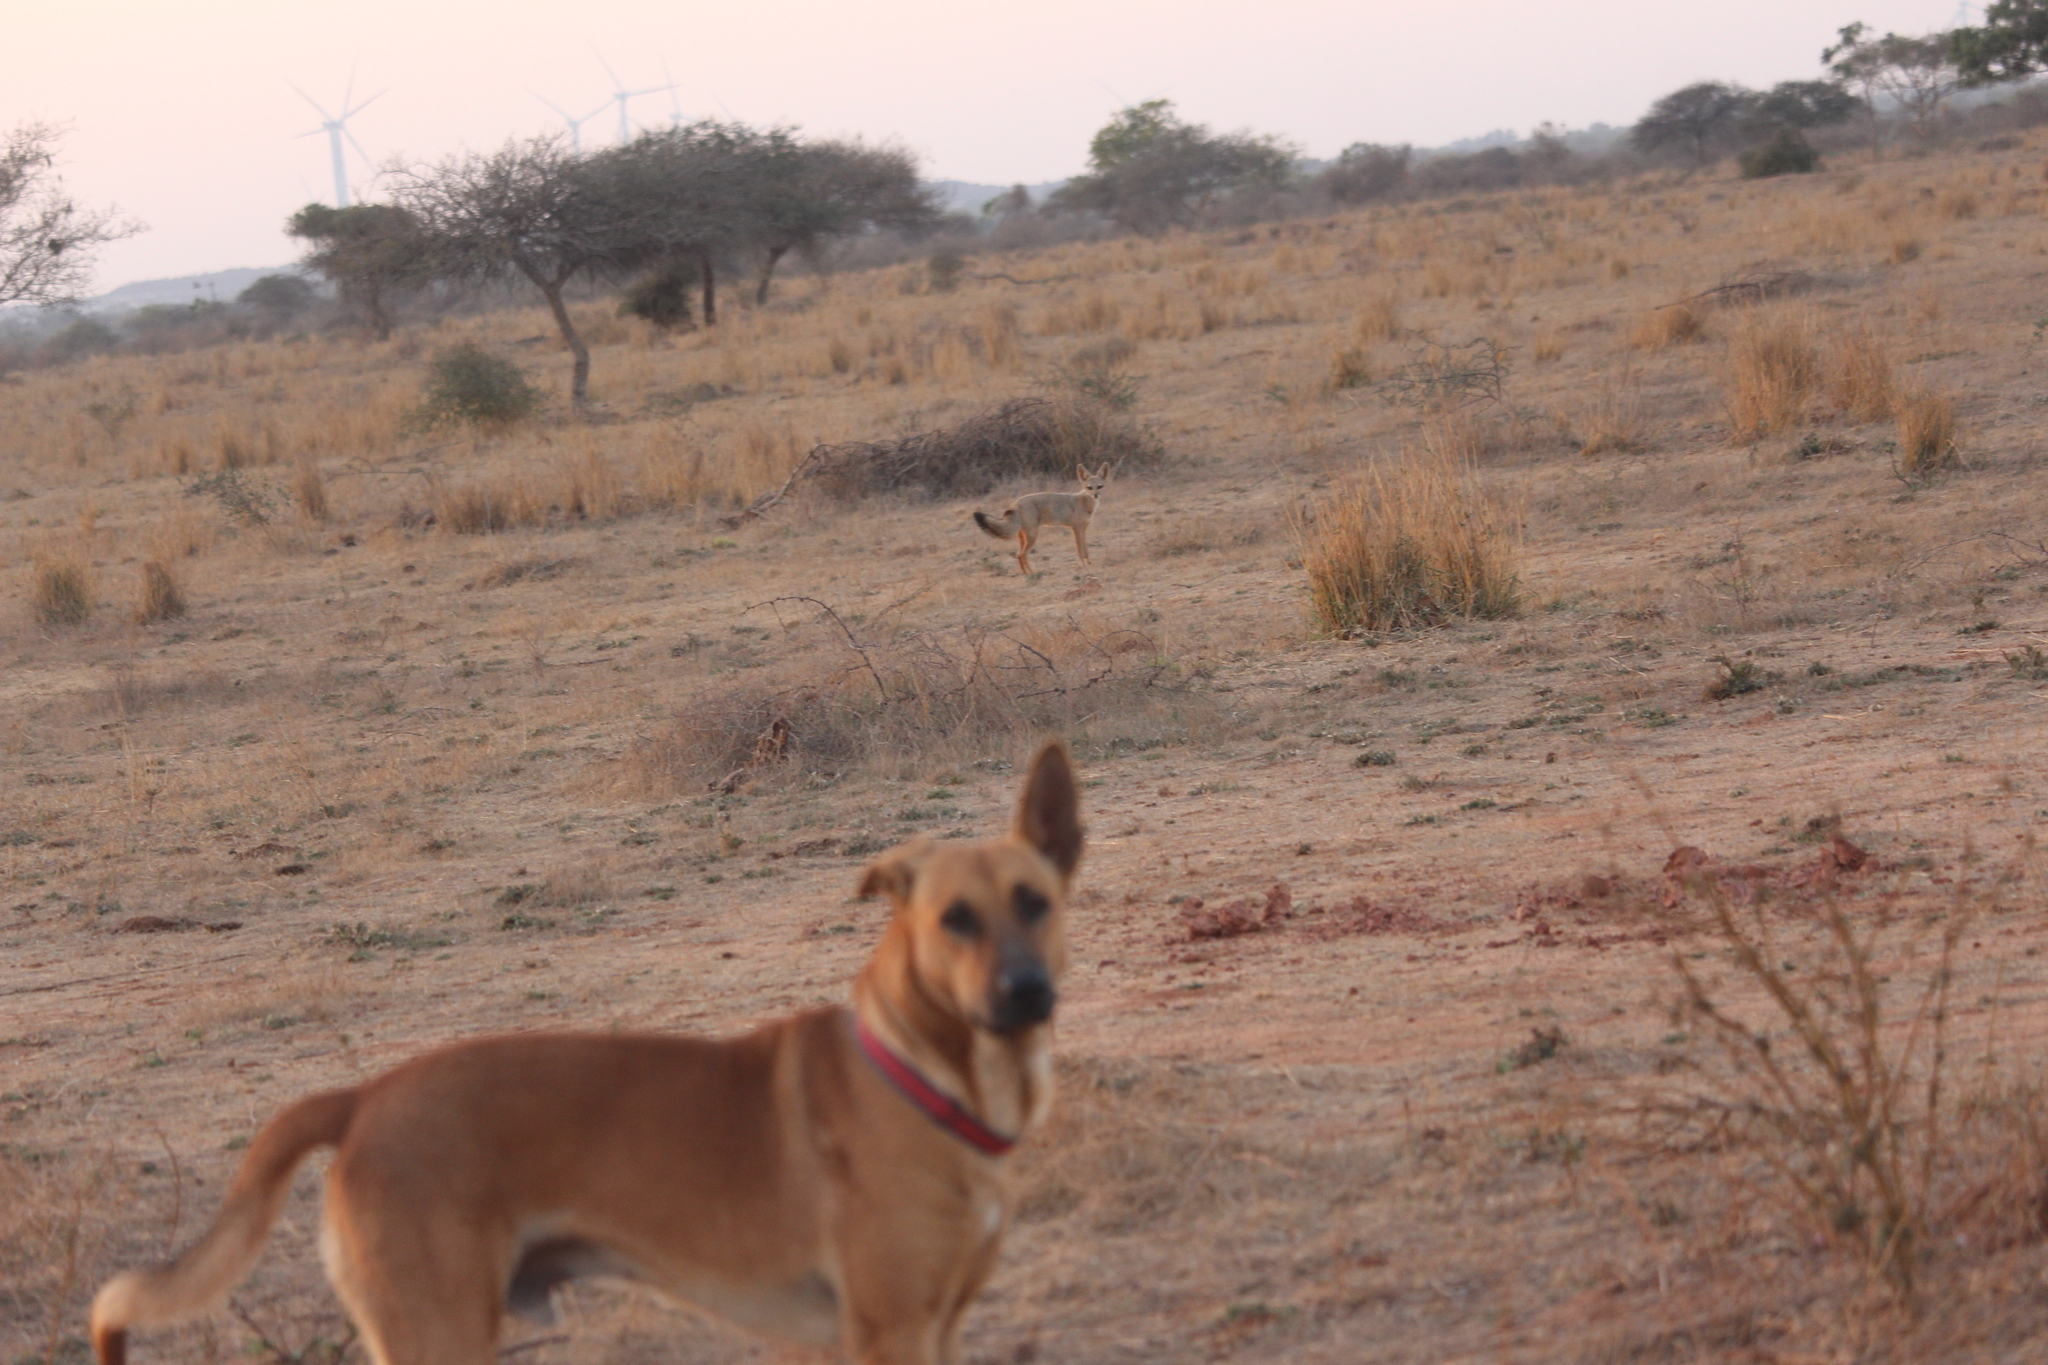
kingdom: Animalia
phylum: Chordata
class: Mammalia
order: Carnivora
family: Canidae
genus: Vulpes
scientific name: Vulpes bengalensis
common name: Bengal fox
